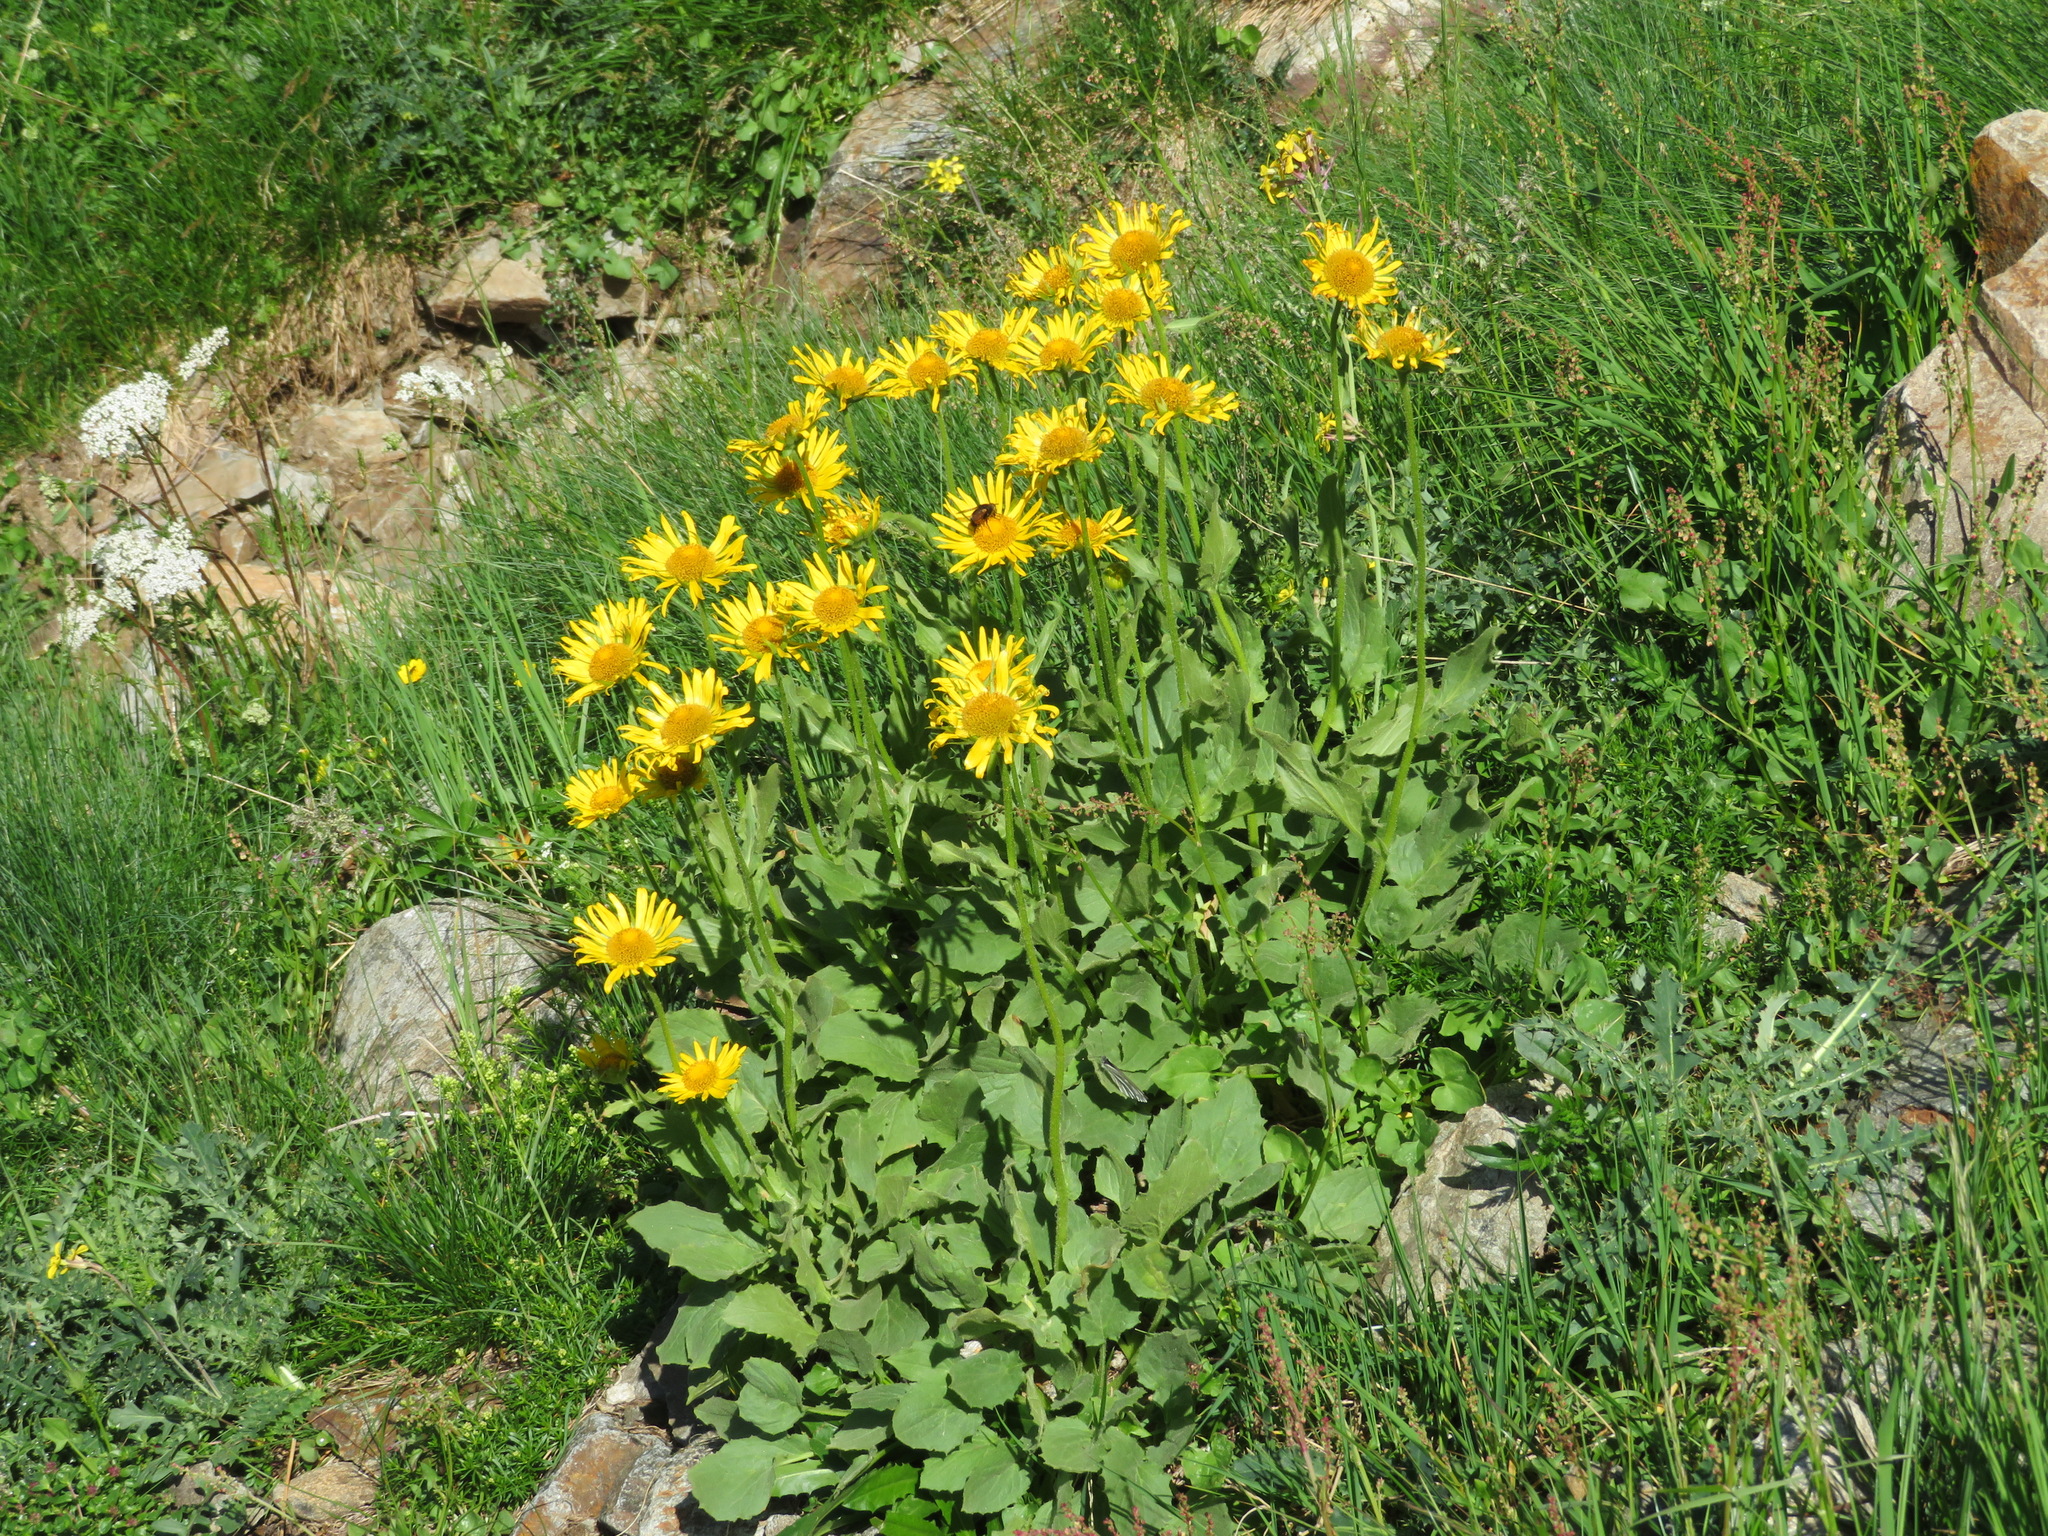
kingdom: Plantae
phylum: Tracheophyta
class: Magnoliopsida
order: Asterales
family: Asteraceae
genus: Doronicum
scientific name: Doronicum grandiflorum
